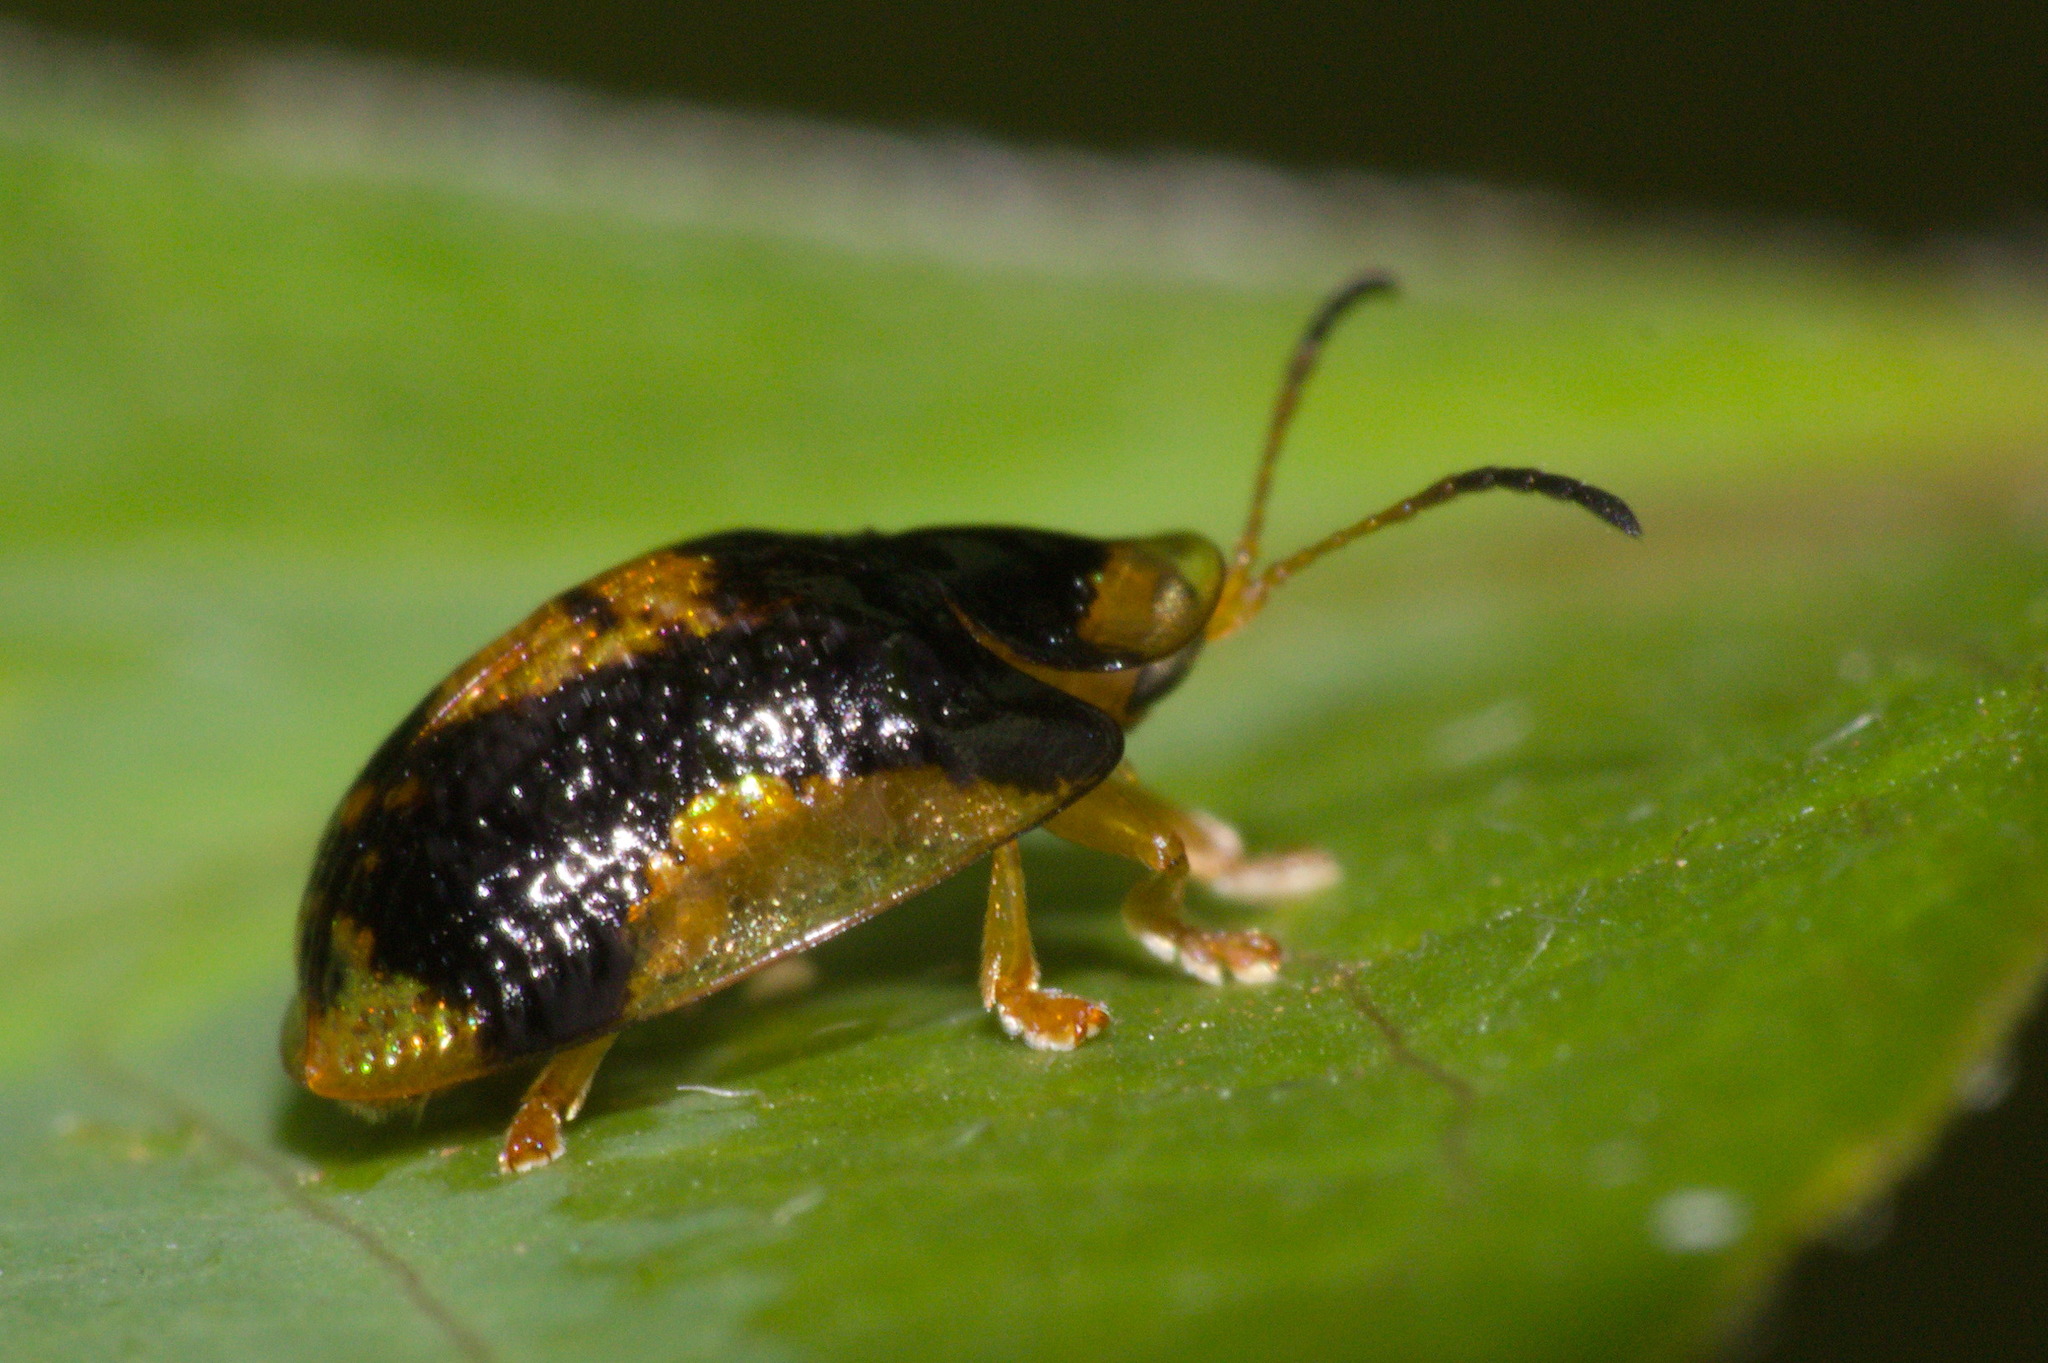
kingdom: Animalia
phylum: Arthropoda
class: Insecta
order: Coleoptera
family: Chrysomelidae
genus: Cteisella
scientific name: Cteisella ramosa
